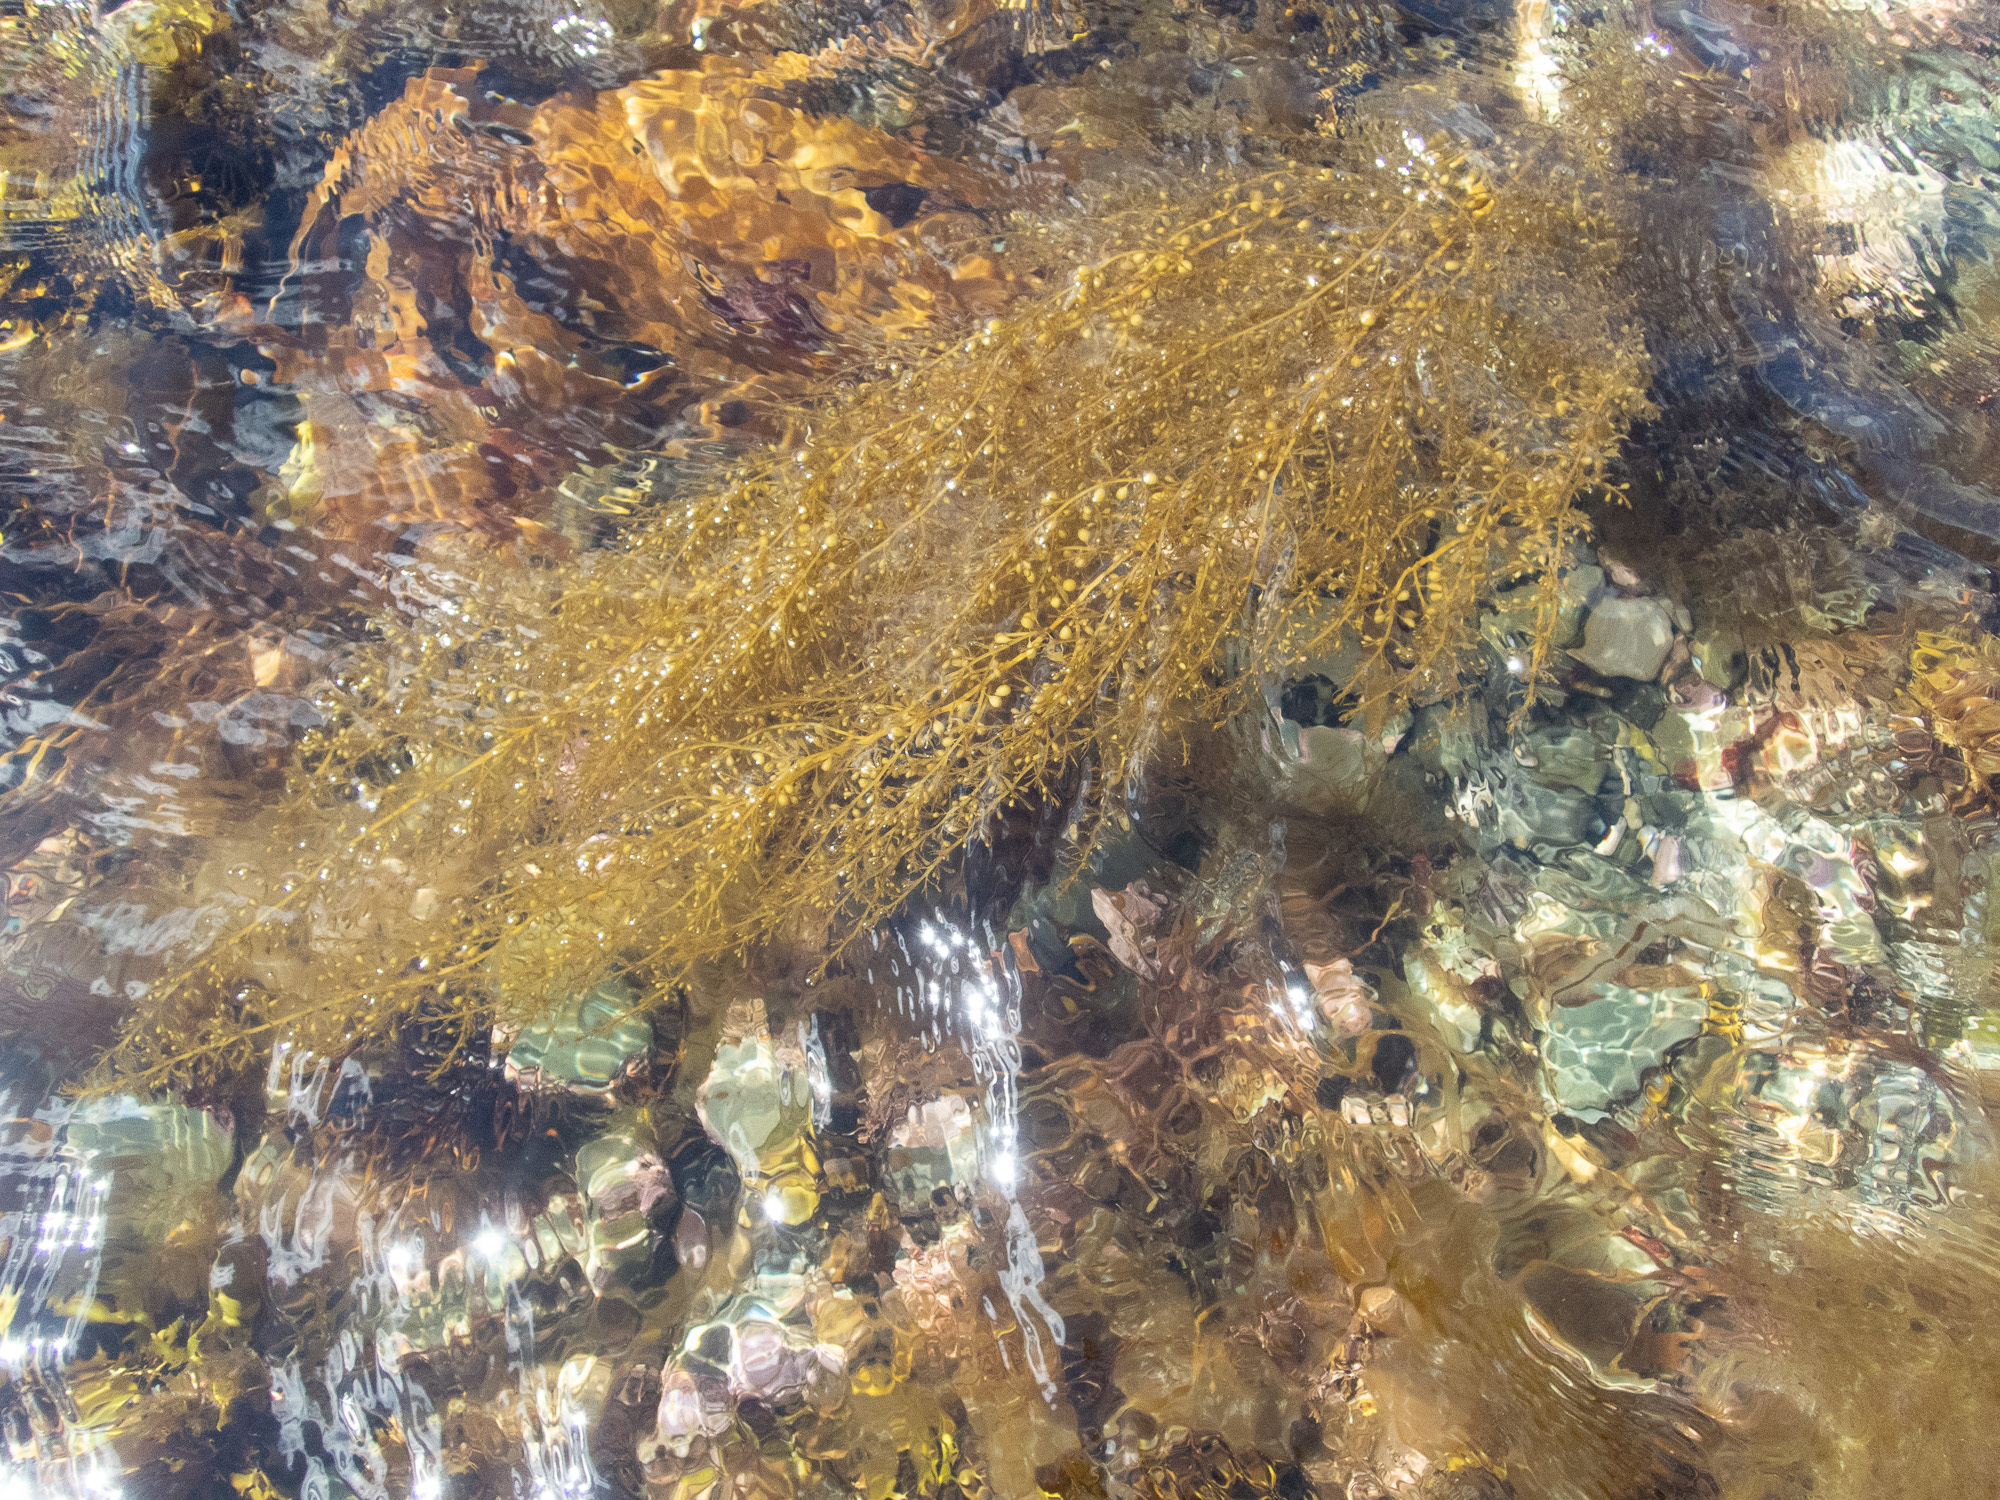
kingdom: Plantae
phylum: Rhodophyta
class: Florideophyceae
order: Gigartinales
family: Cystocloniaceae
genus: Cystoclonium
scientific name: Cystoclonium purpureum
